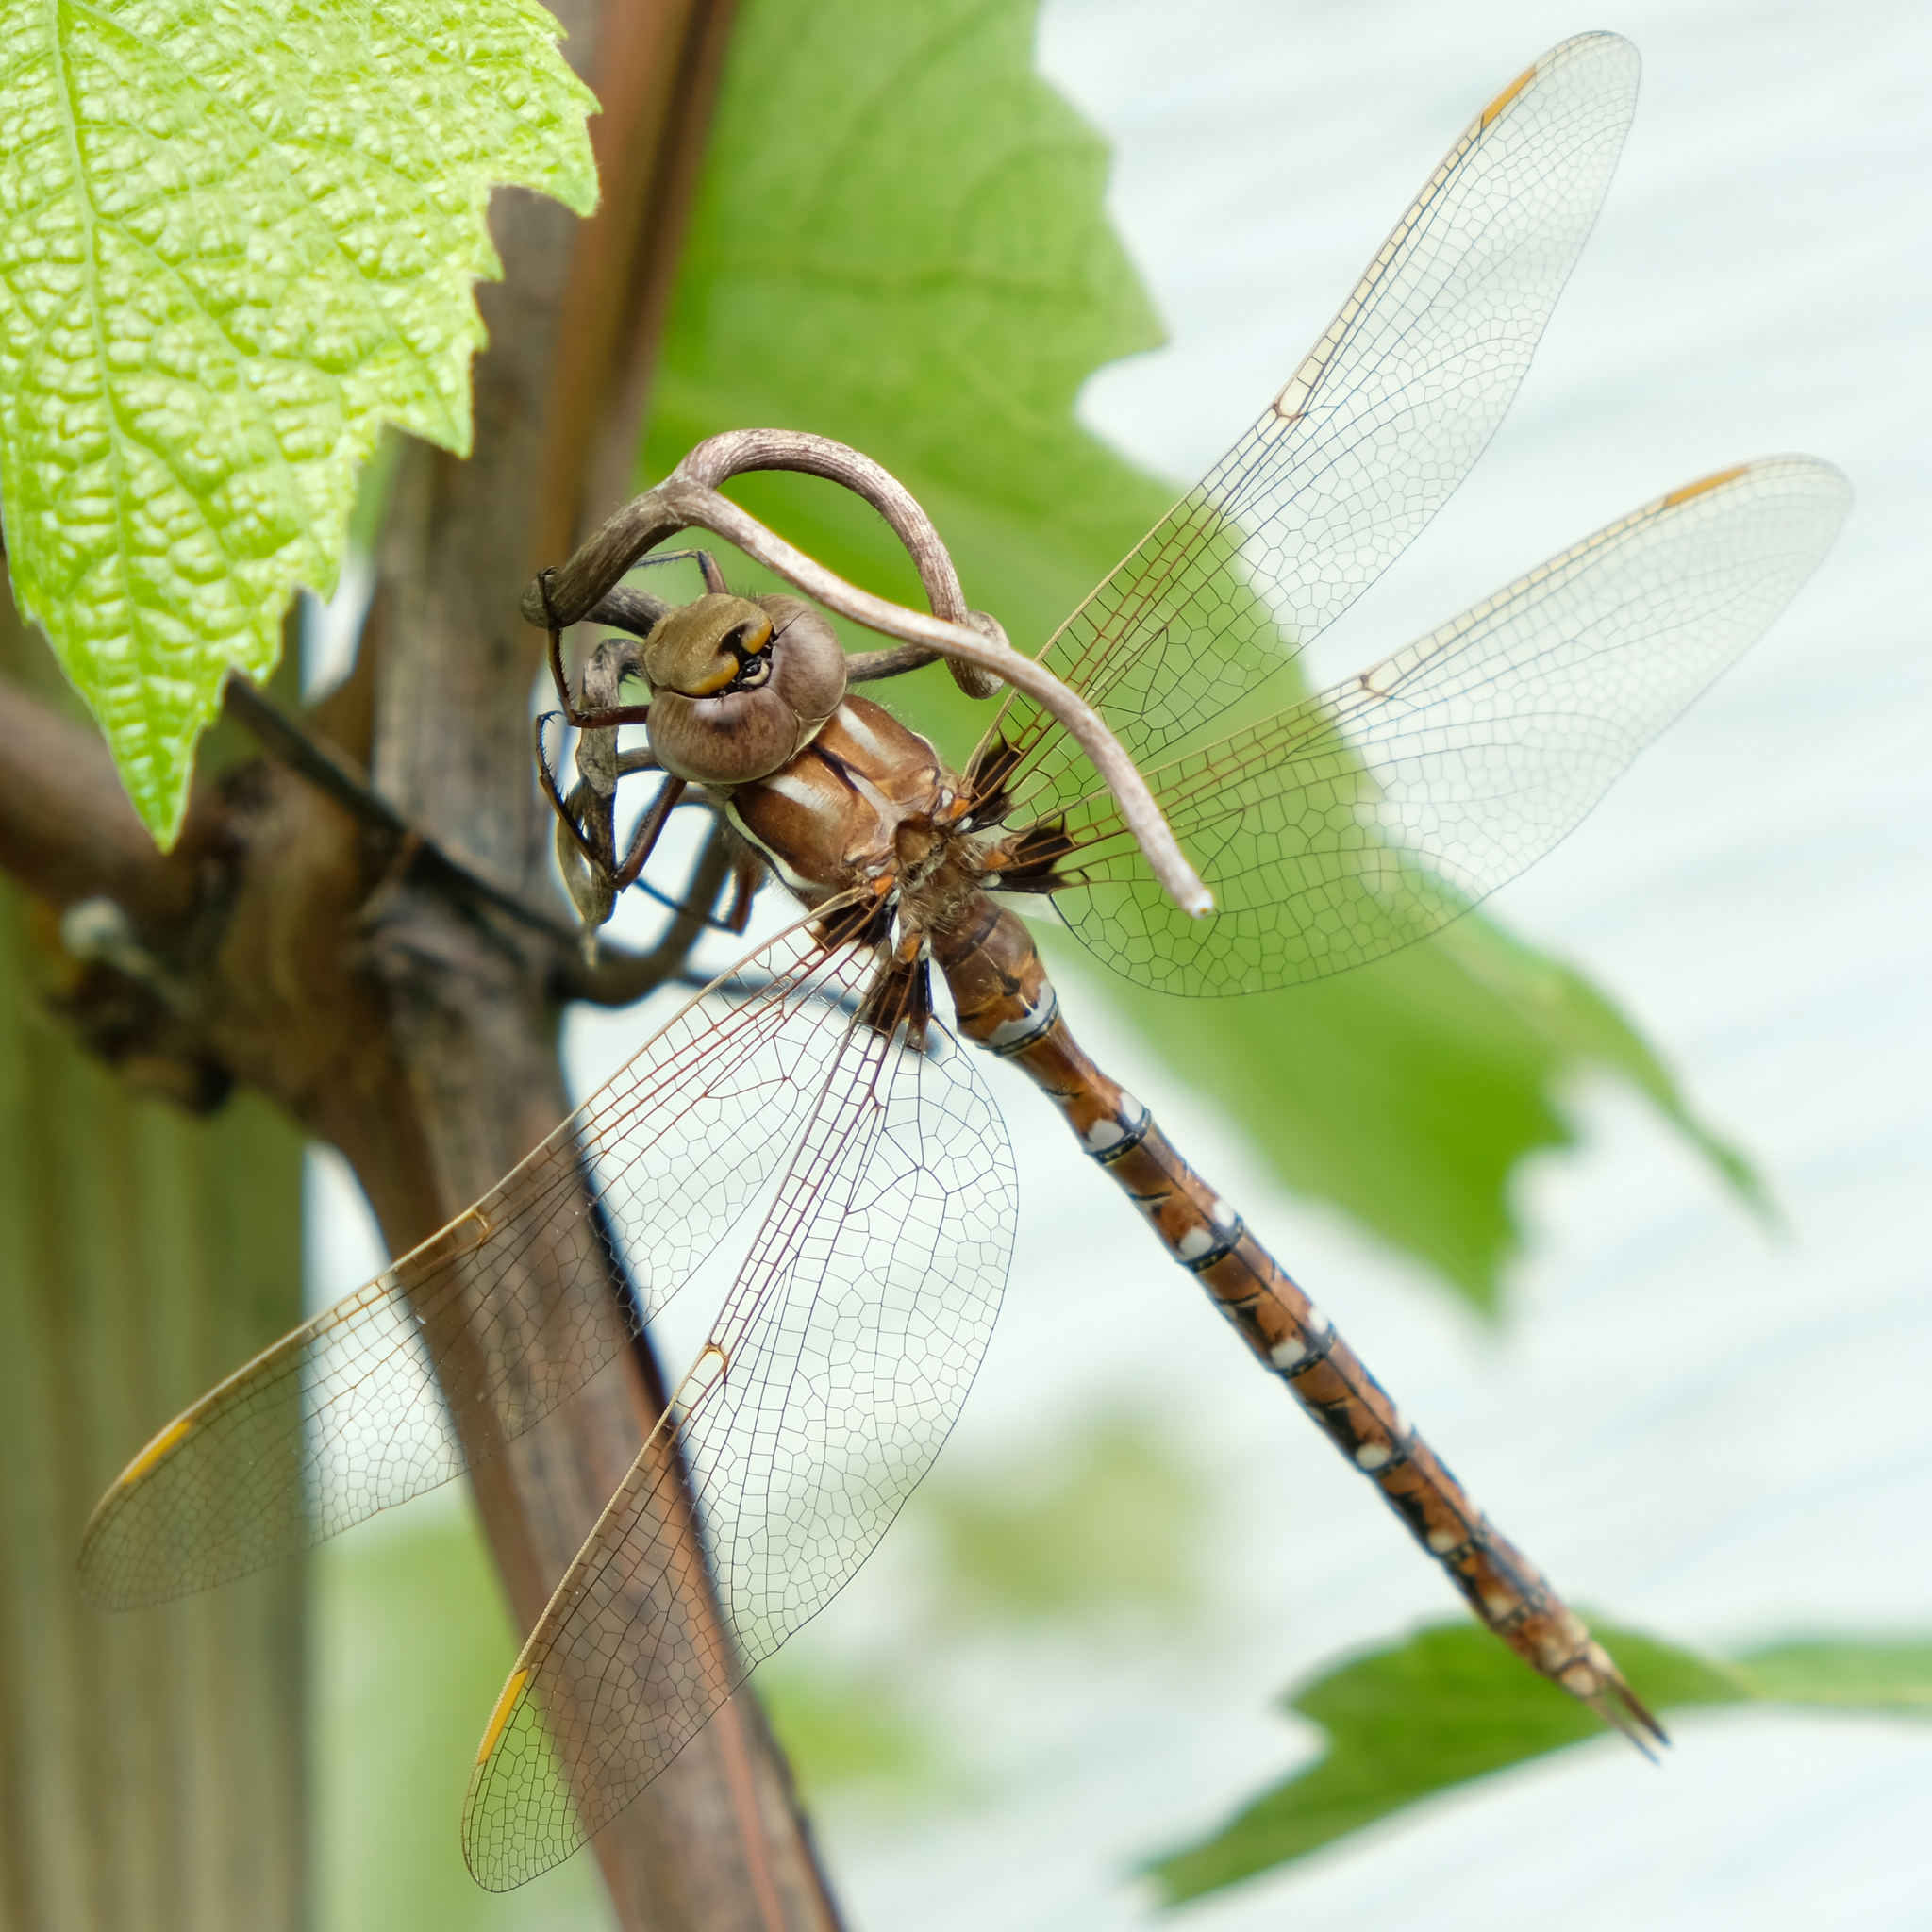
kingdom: Animalia
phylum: Arthropoda
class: Insecta
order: Odonata
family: Aeshnidae
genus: Basiaeschna
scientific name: Basiaeschna janata
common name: Springtime darner
